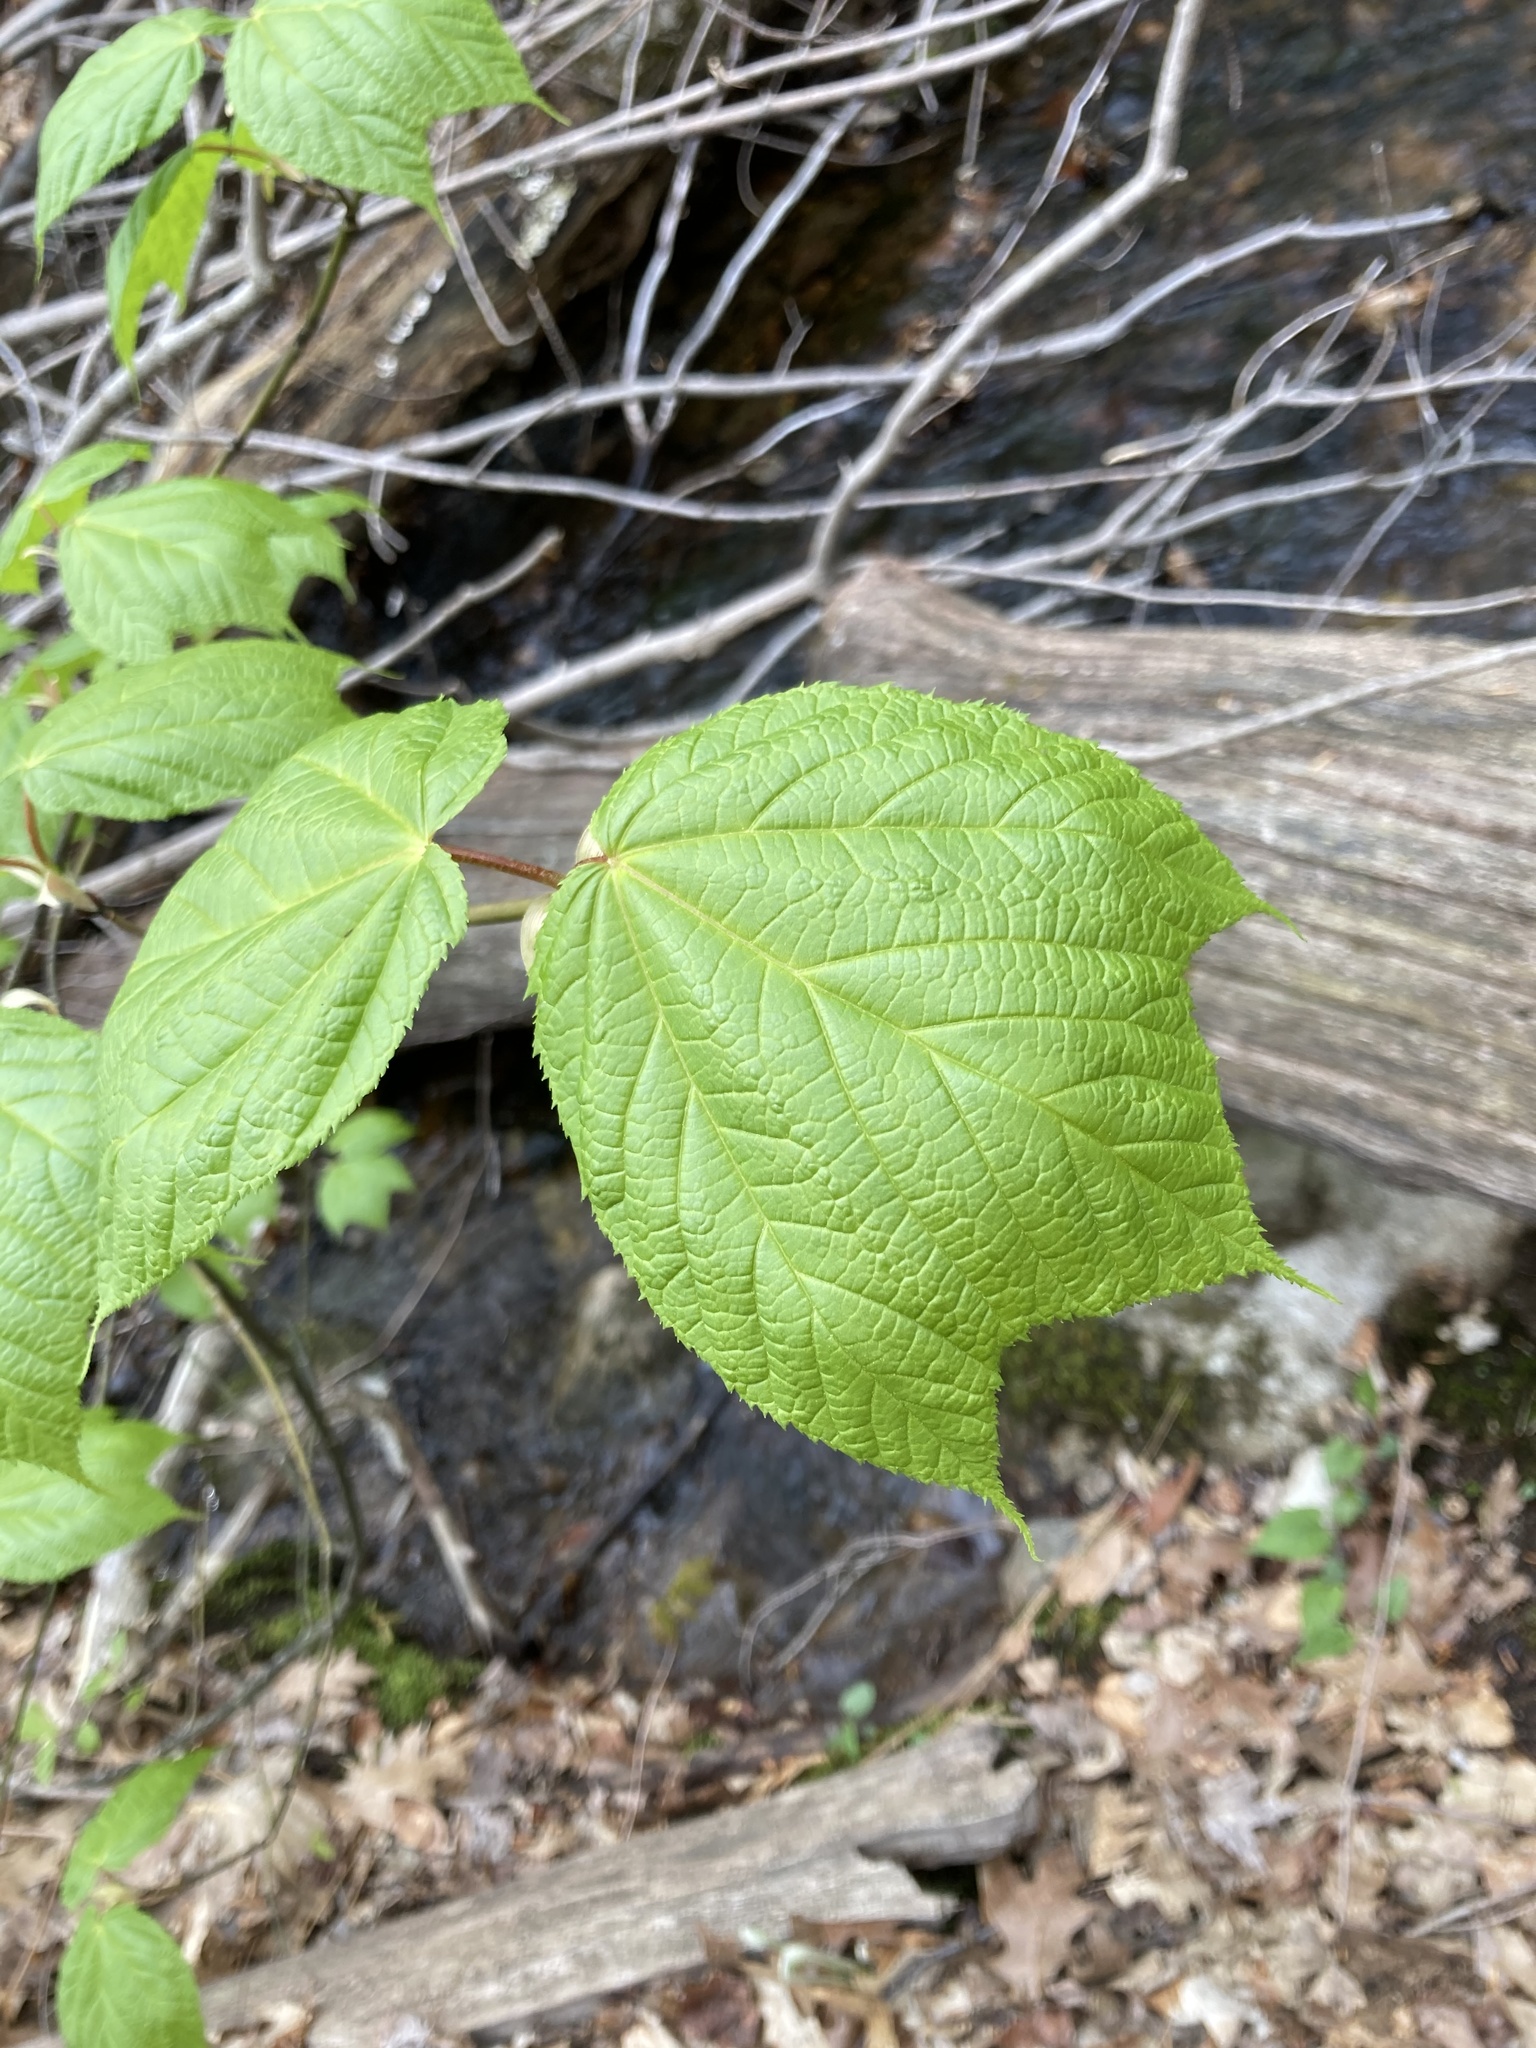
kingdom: Plantae
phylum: Tracheophyta
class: Magnoliopsida
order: Sapindales
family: Sapindaceae
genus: Acer
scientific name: Acer pensylvanicum
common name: Moosewood
